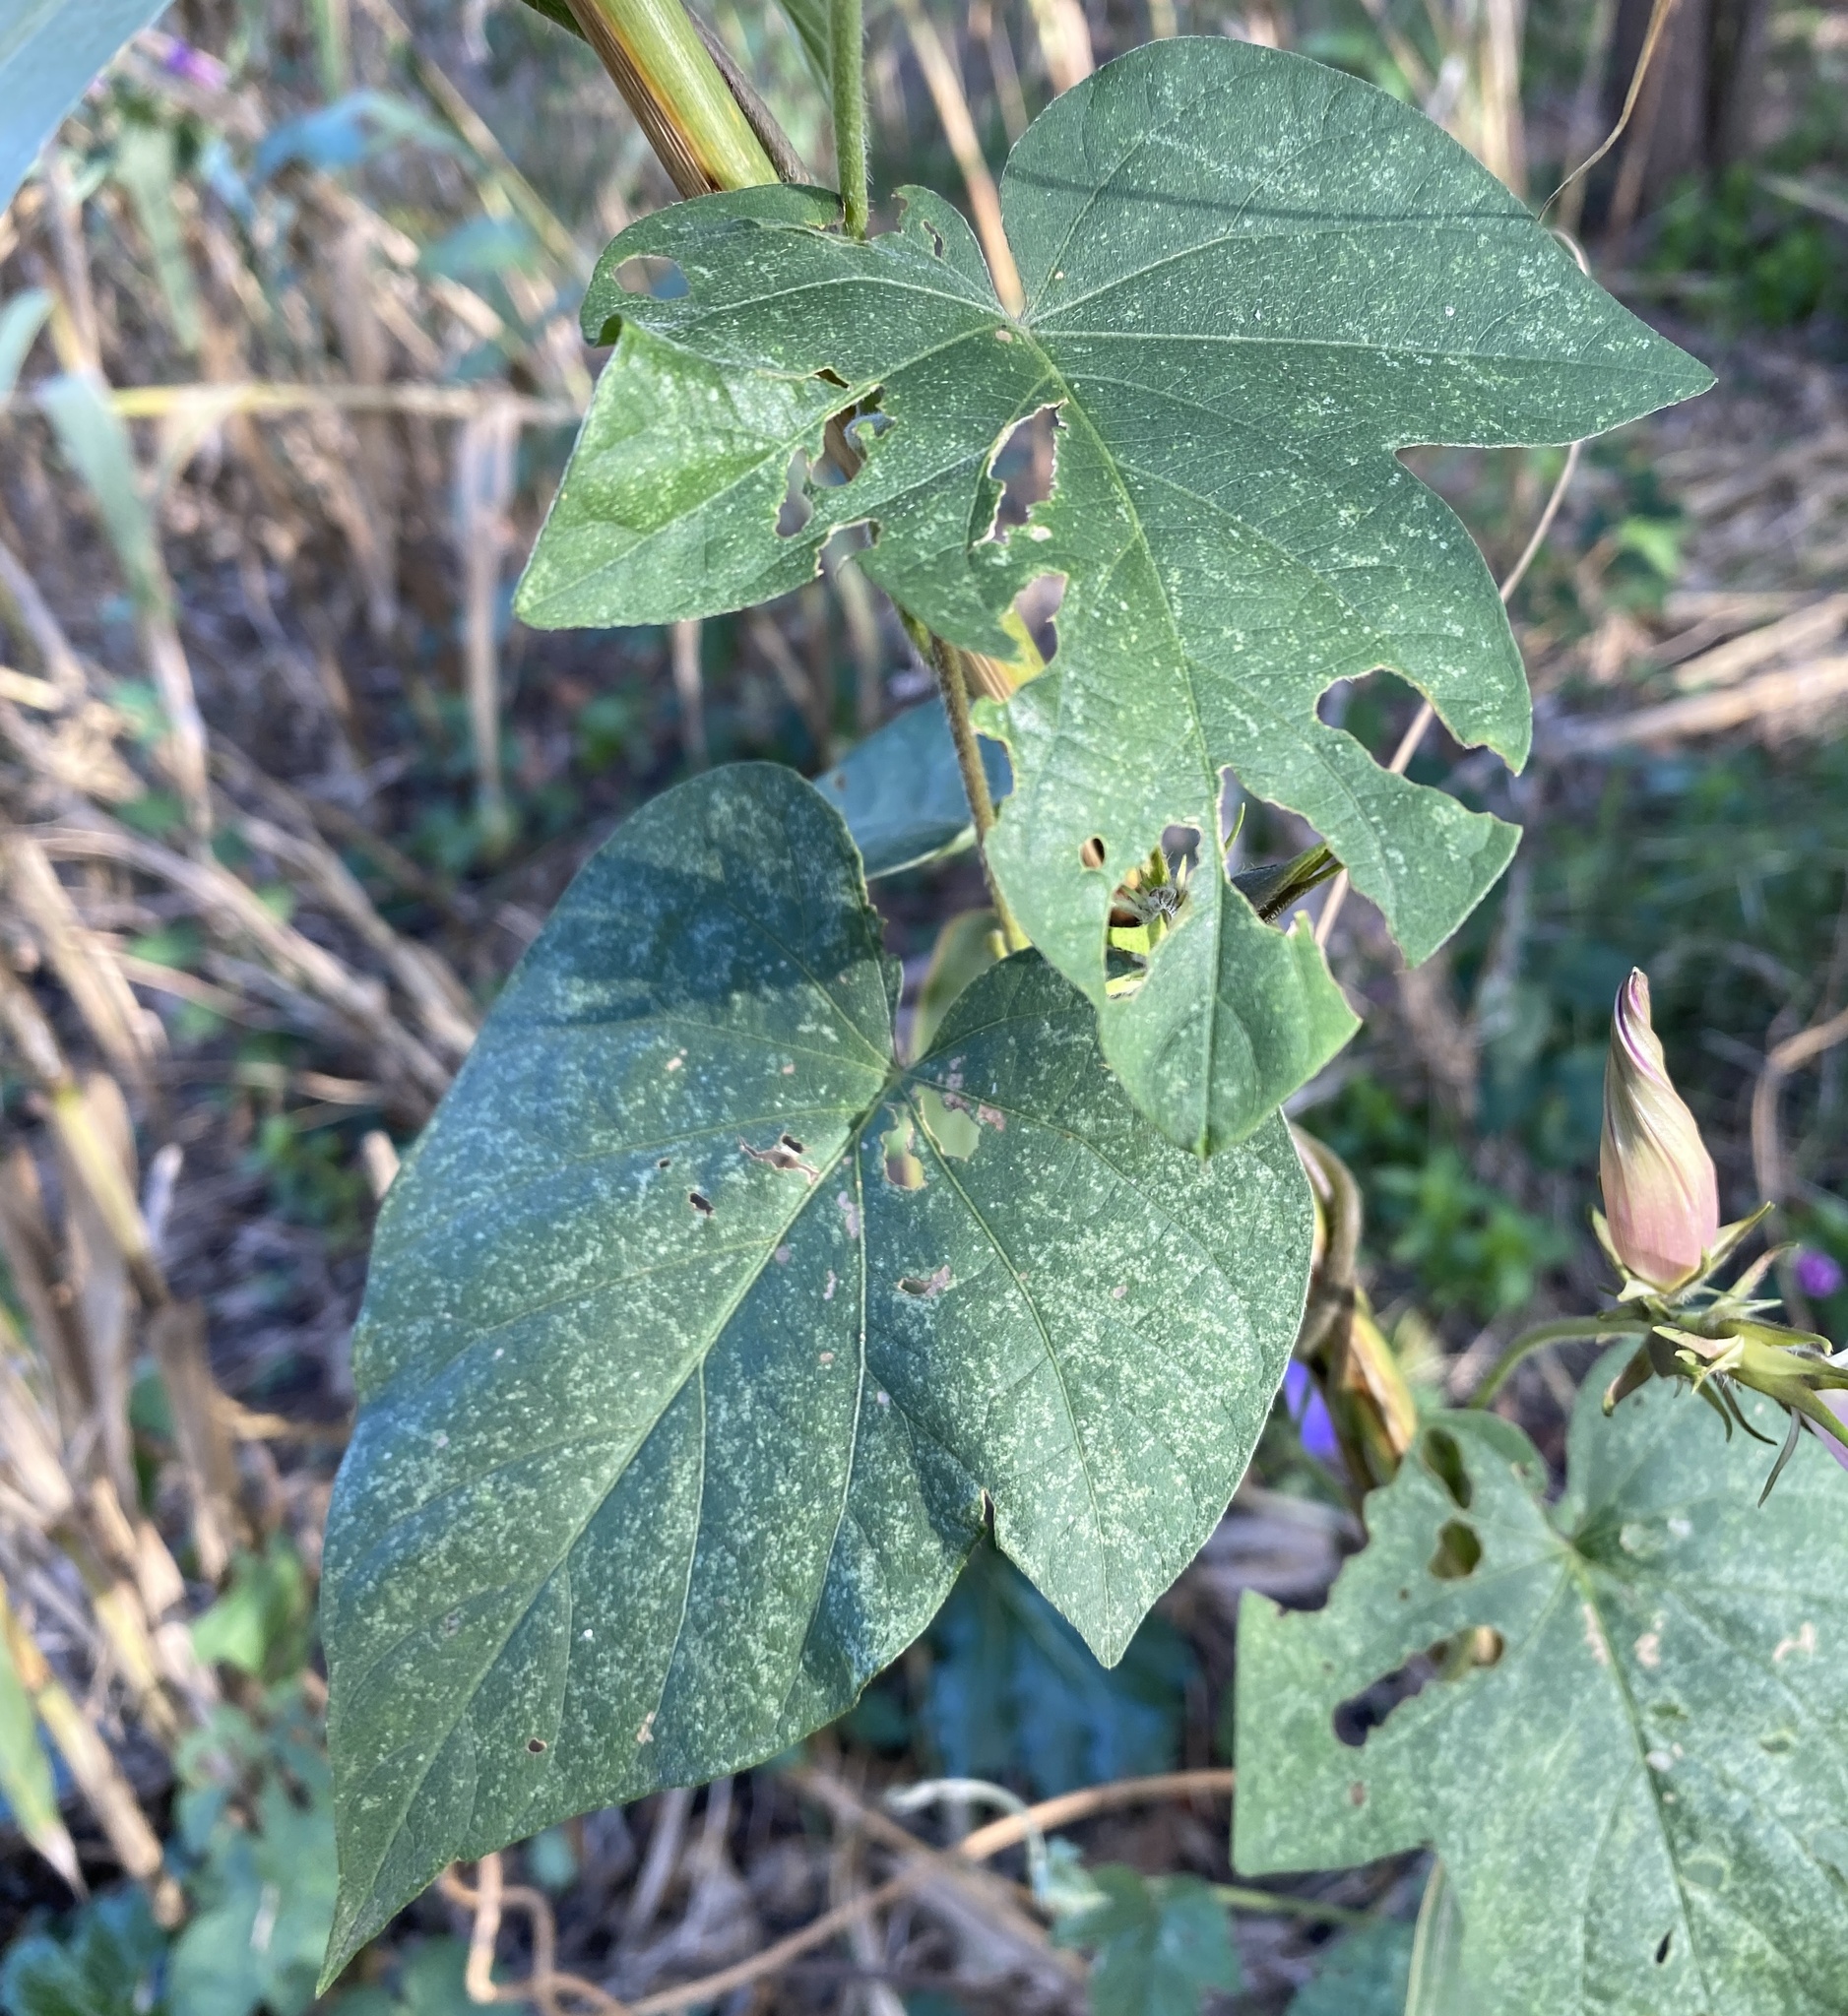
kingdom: Plantae
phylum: Tracheophyta
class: Magnoliopsida
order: Solanales
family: Convolvulaceae
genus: Ipomoea
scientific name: Ipomoea indica
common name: Blue dawnflower
